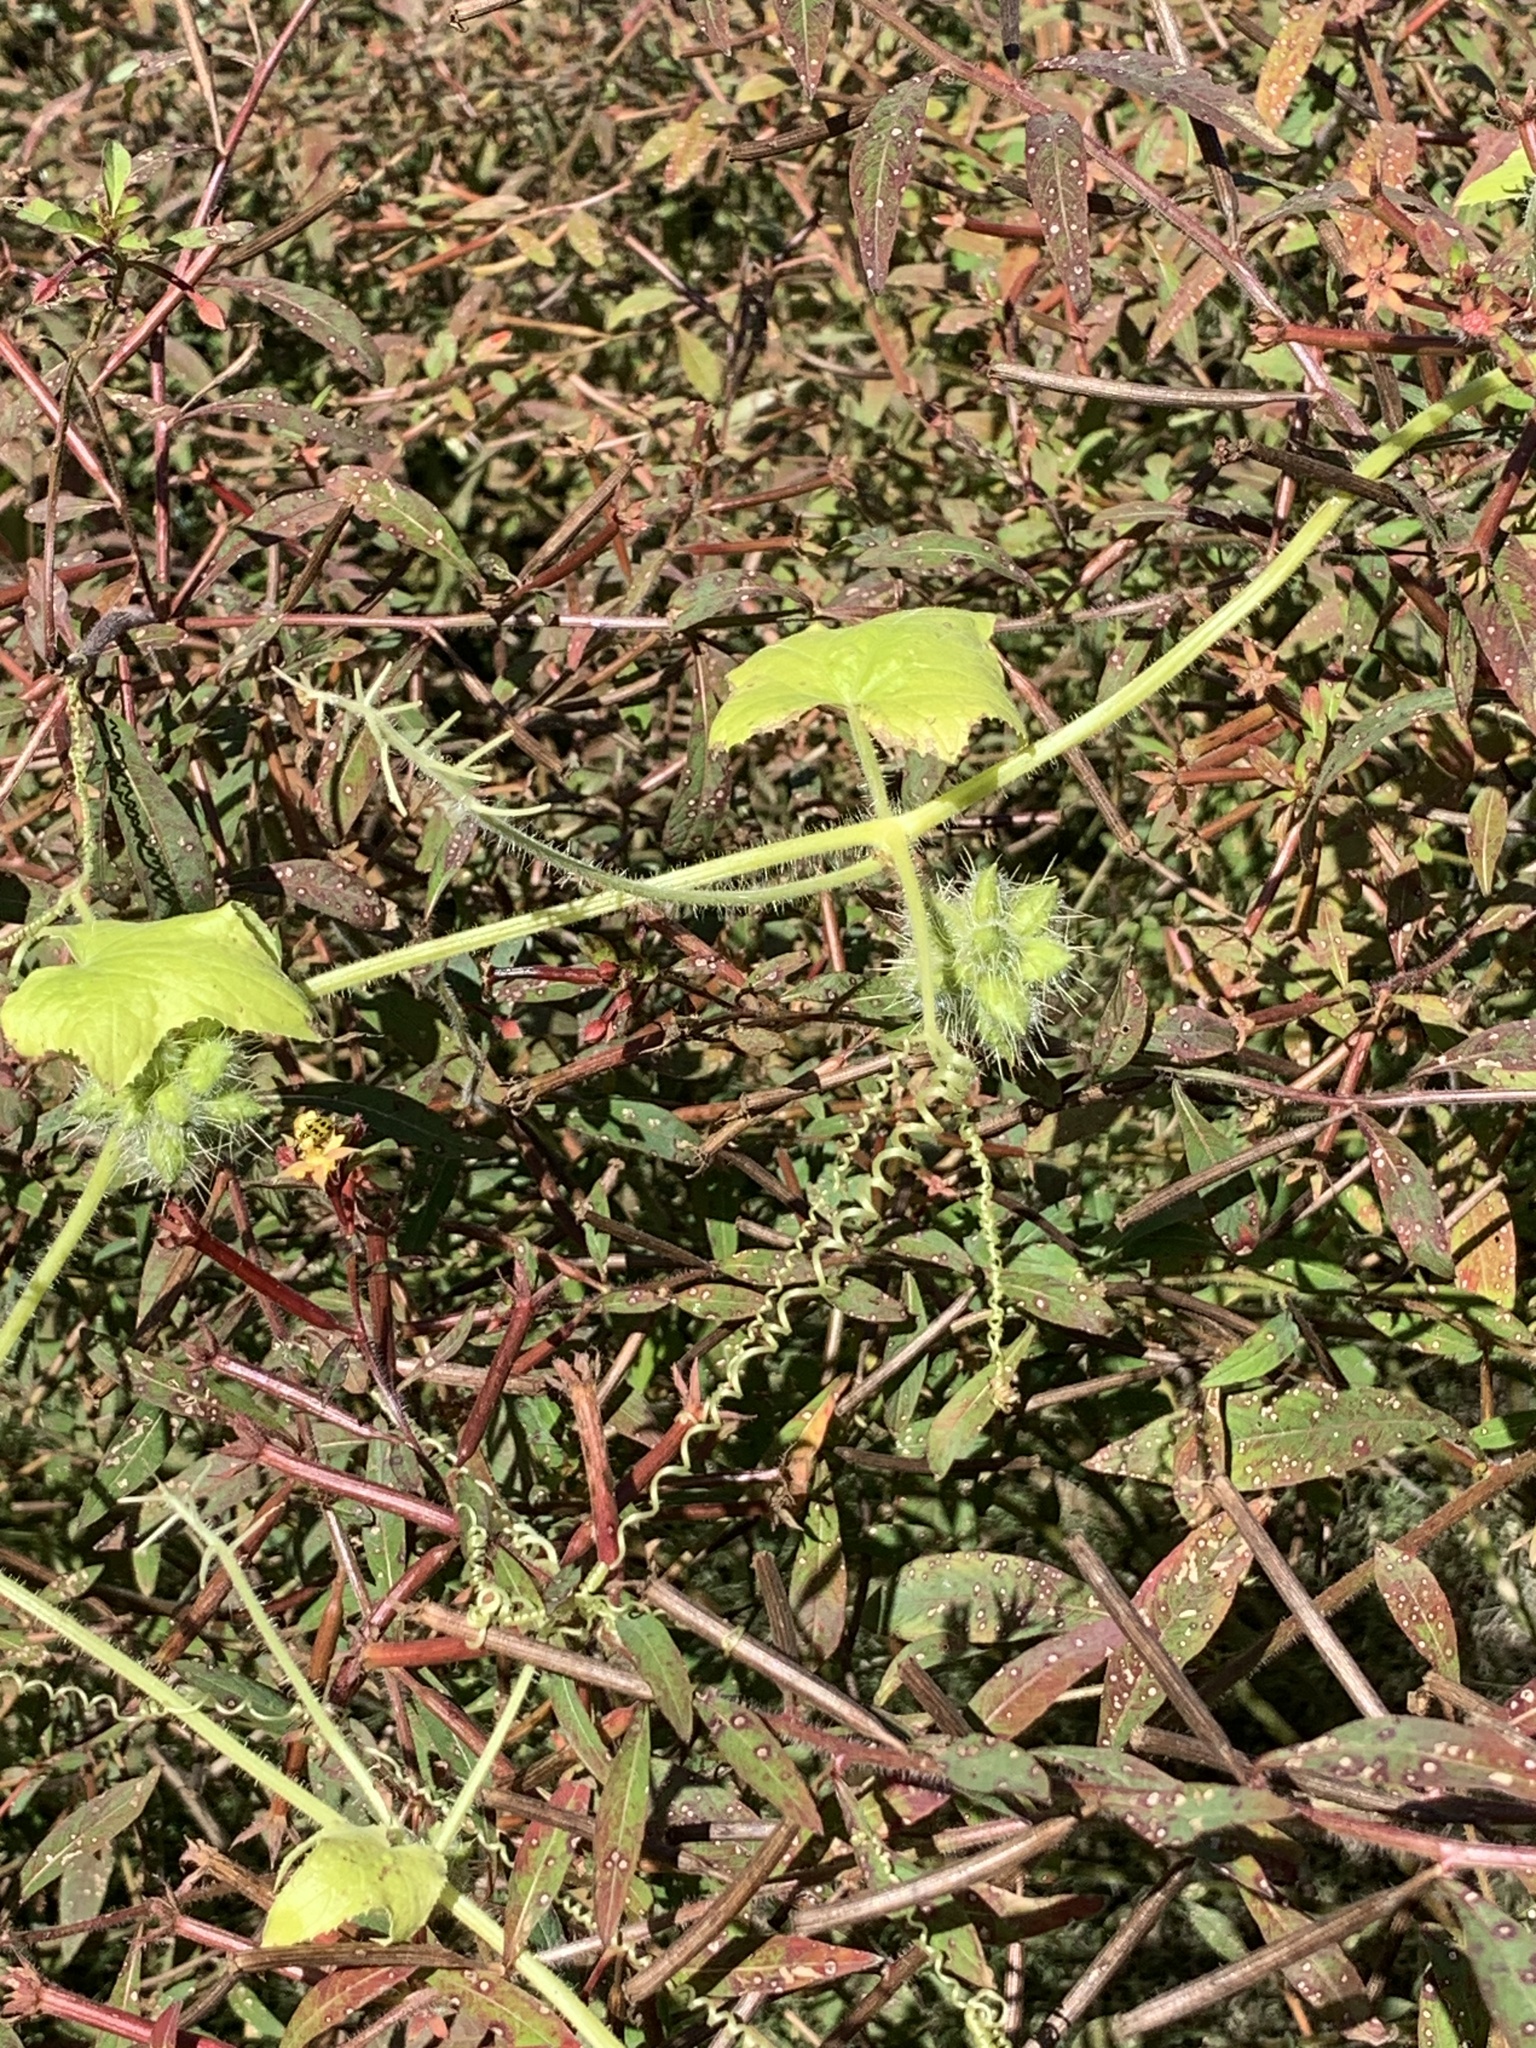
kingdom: Plantae
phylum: Tracheophyta
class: Magnoliopsida
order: Cucurbitales
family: Cucurbitaceae
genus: Sicyos
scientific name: Sicyos angulatus
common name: Angled burr cucumber
